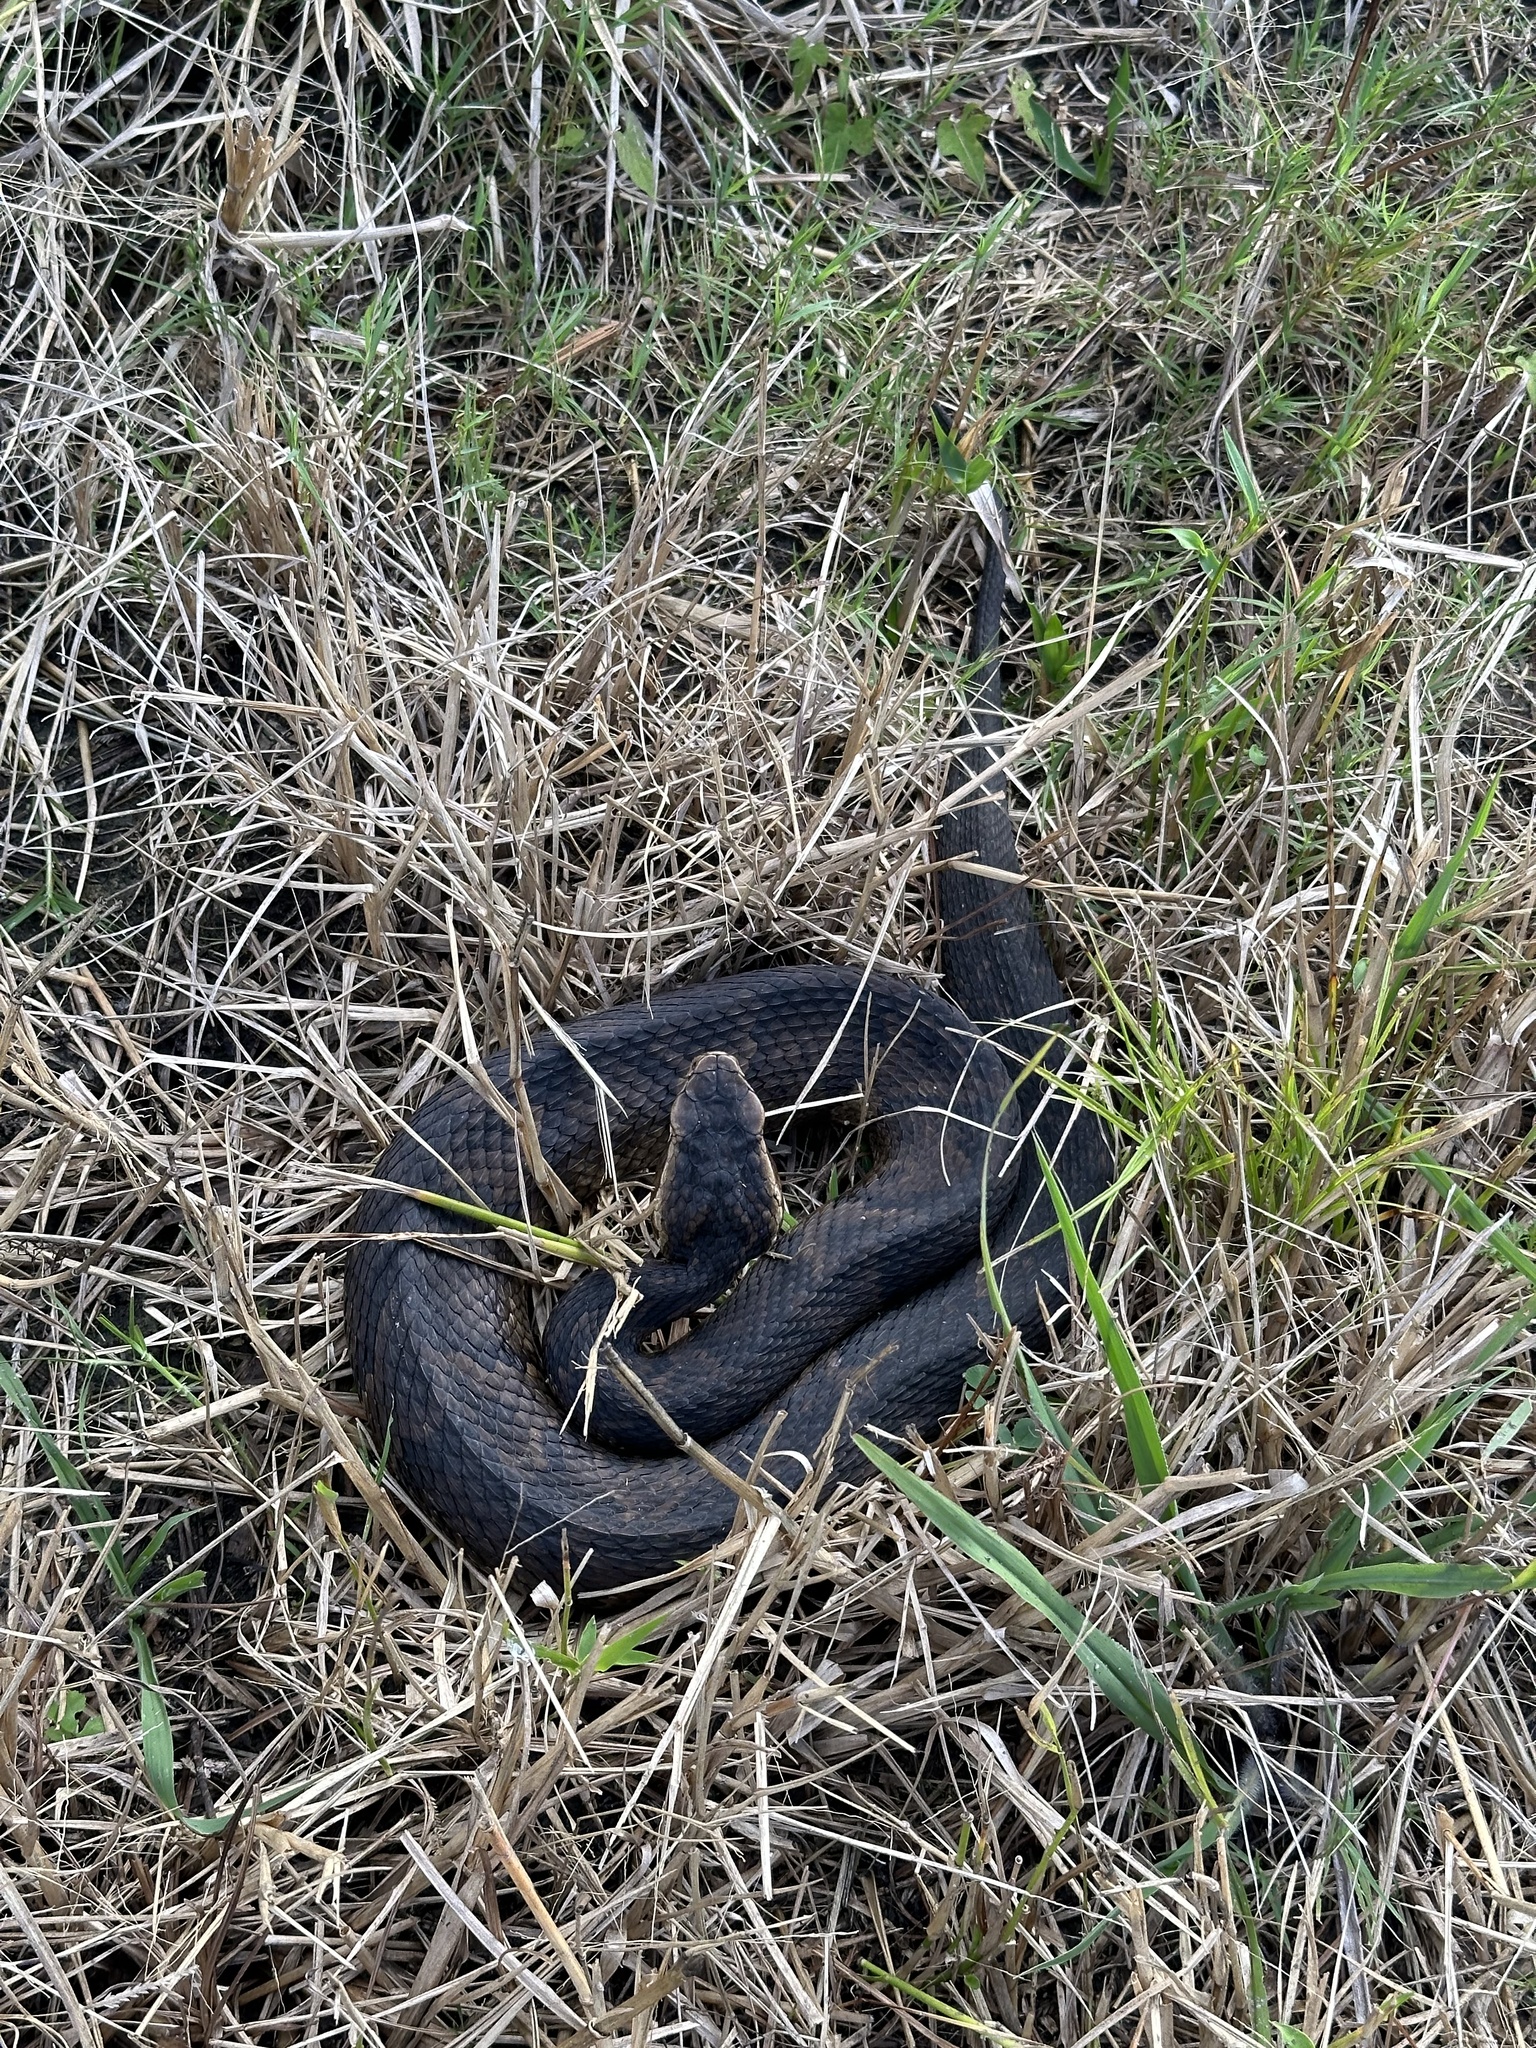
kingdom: Animalia
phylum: Chordata
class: Squamata
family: Viperidae
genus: Agkistrodon
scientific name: Agkistrodon conanti
